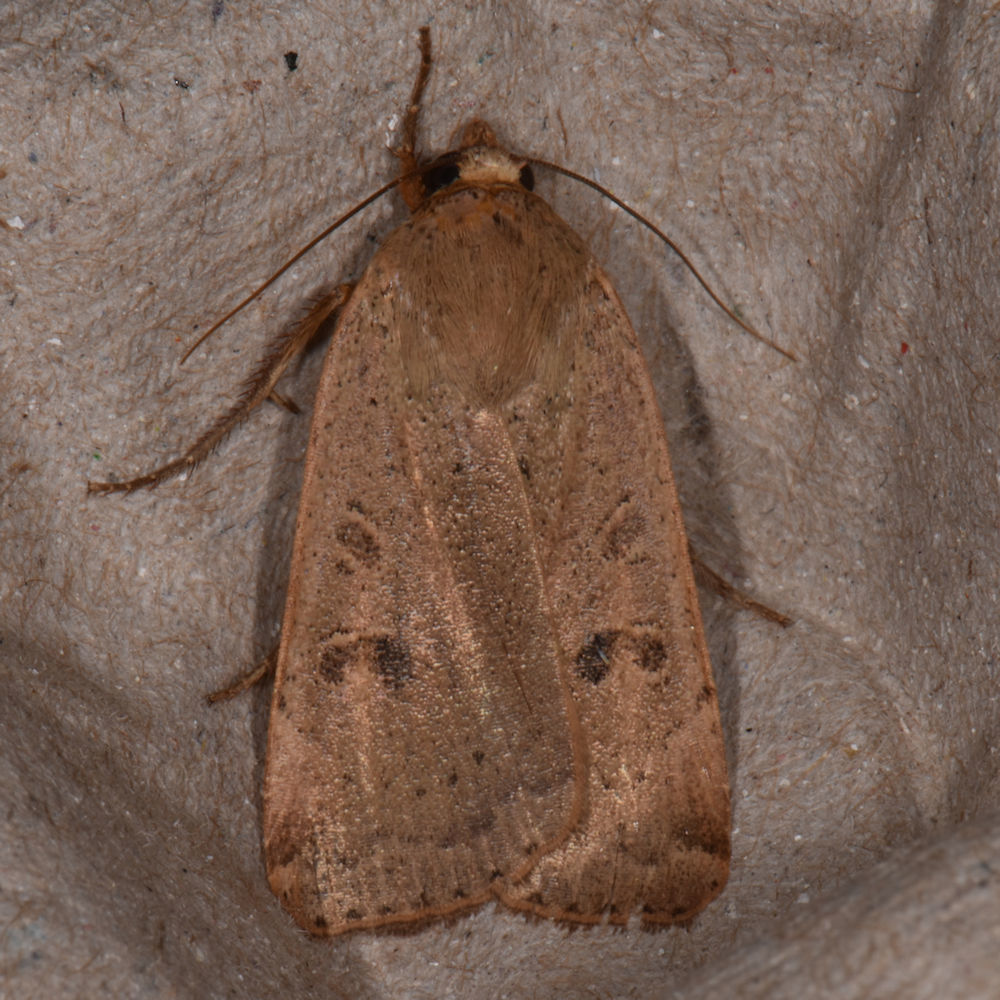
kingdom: Animalia
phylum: Arthropoda
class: Insecta
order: Lepidoptera
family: Noctuidae
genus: Noctua
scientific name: Noctua comes
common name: Lesser yellow underwing
